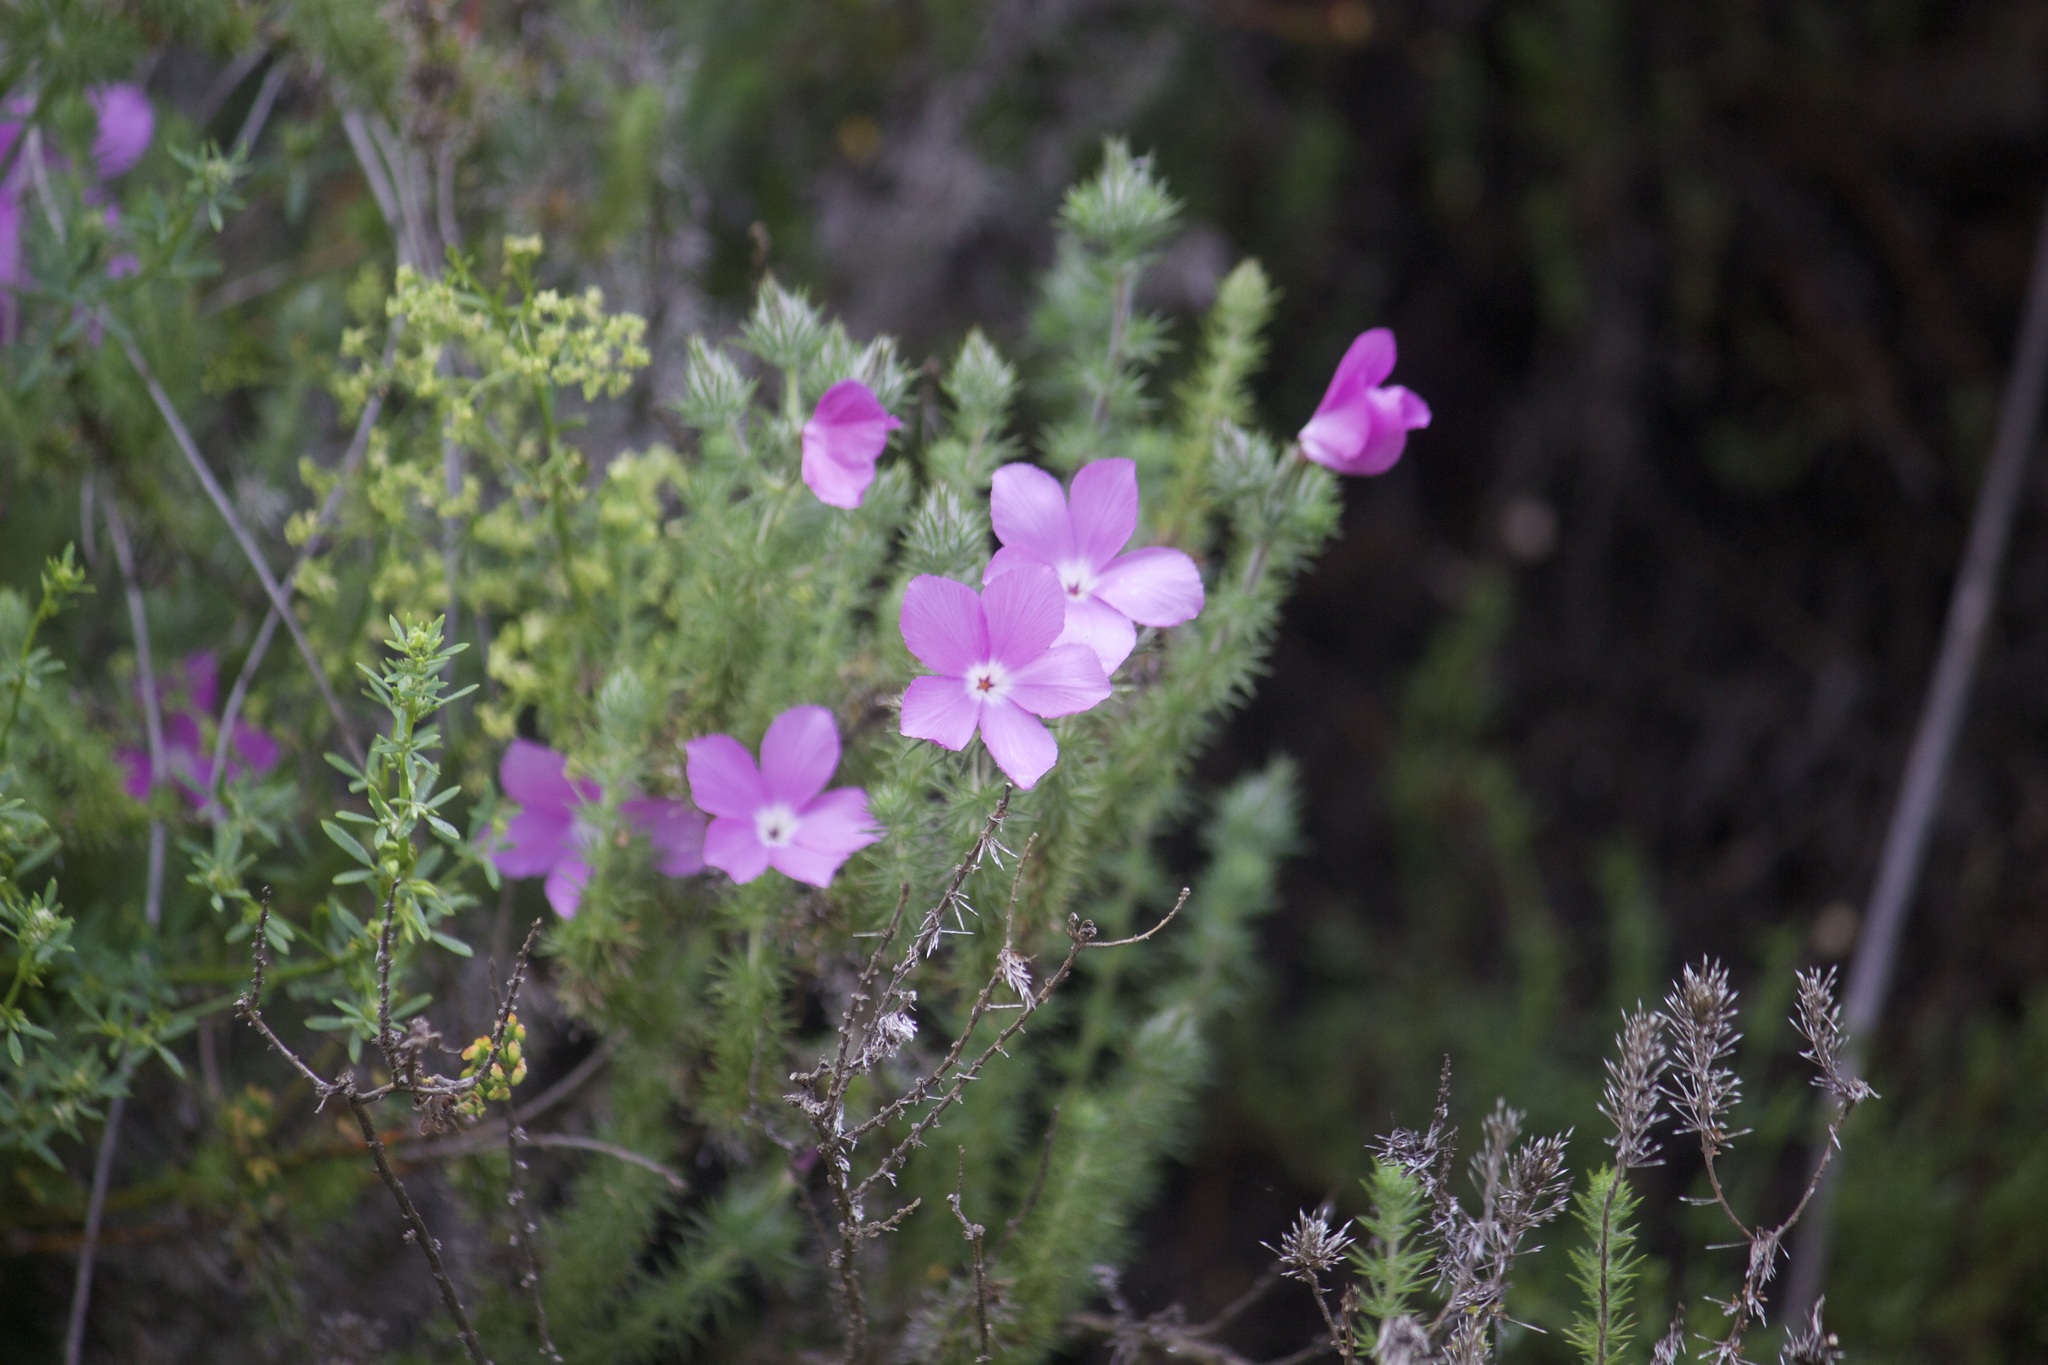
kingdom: Plantae
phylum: Tracheophyta
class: Magnoliopsida
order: Ericales
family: Polemoniaceae
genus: Linanthus
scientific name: Linanthus californicus
